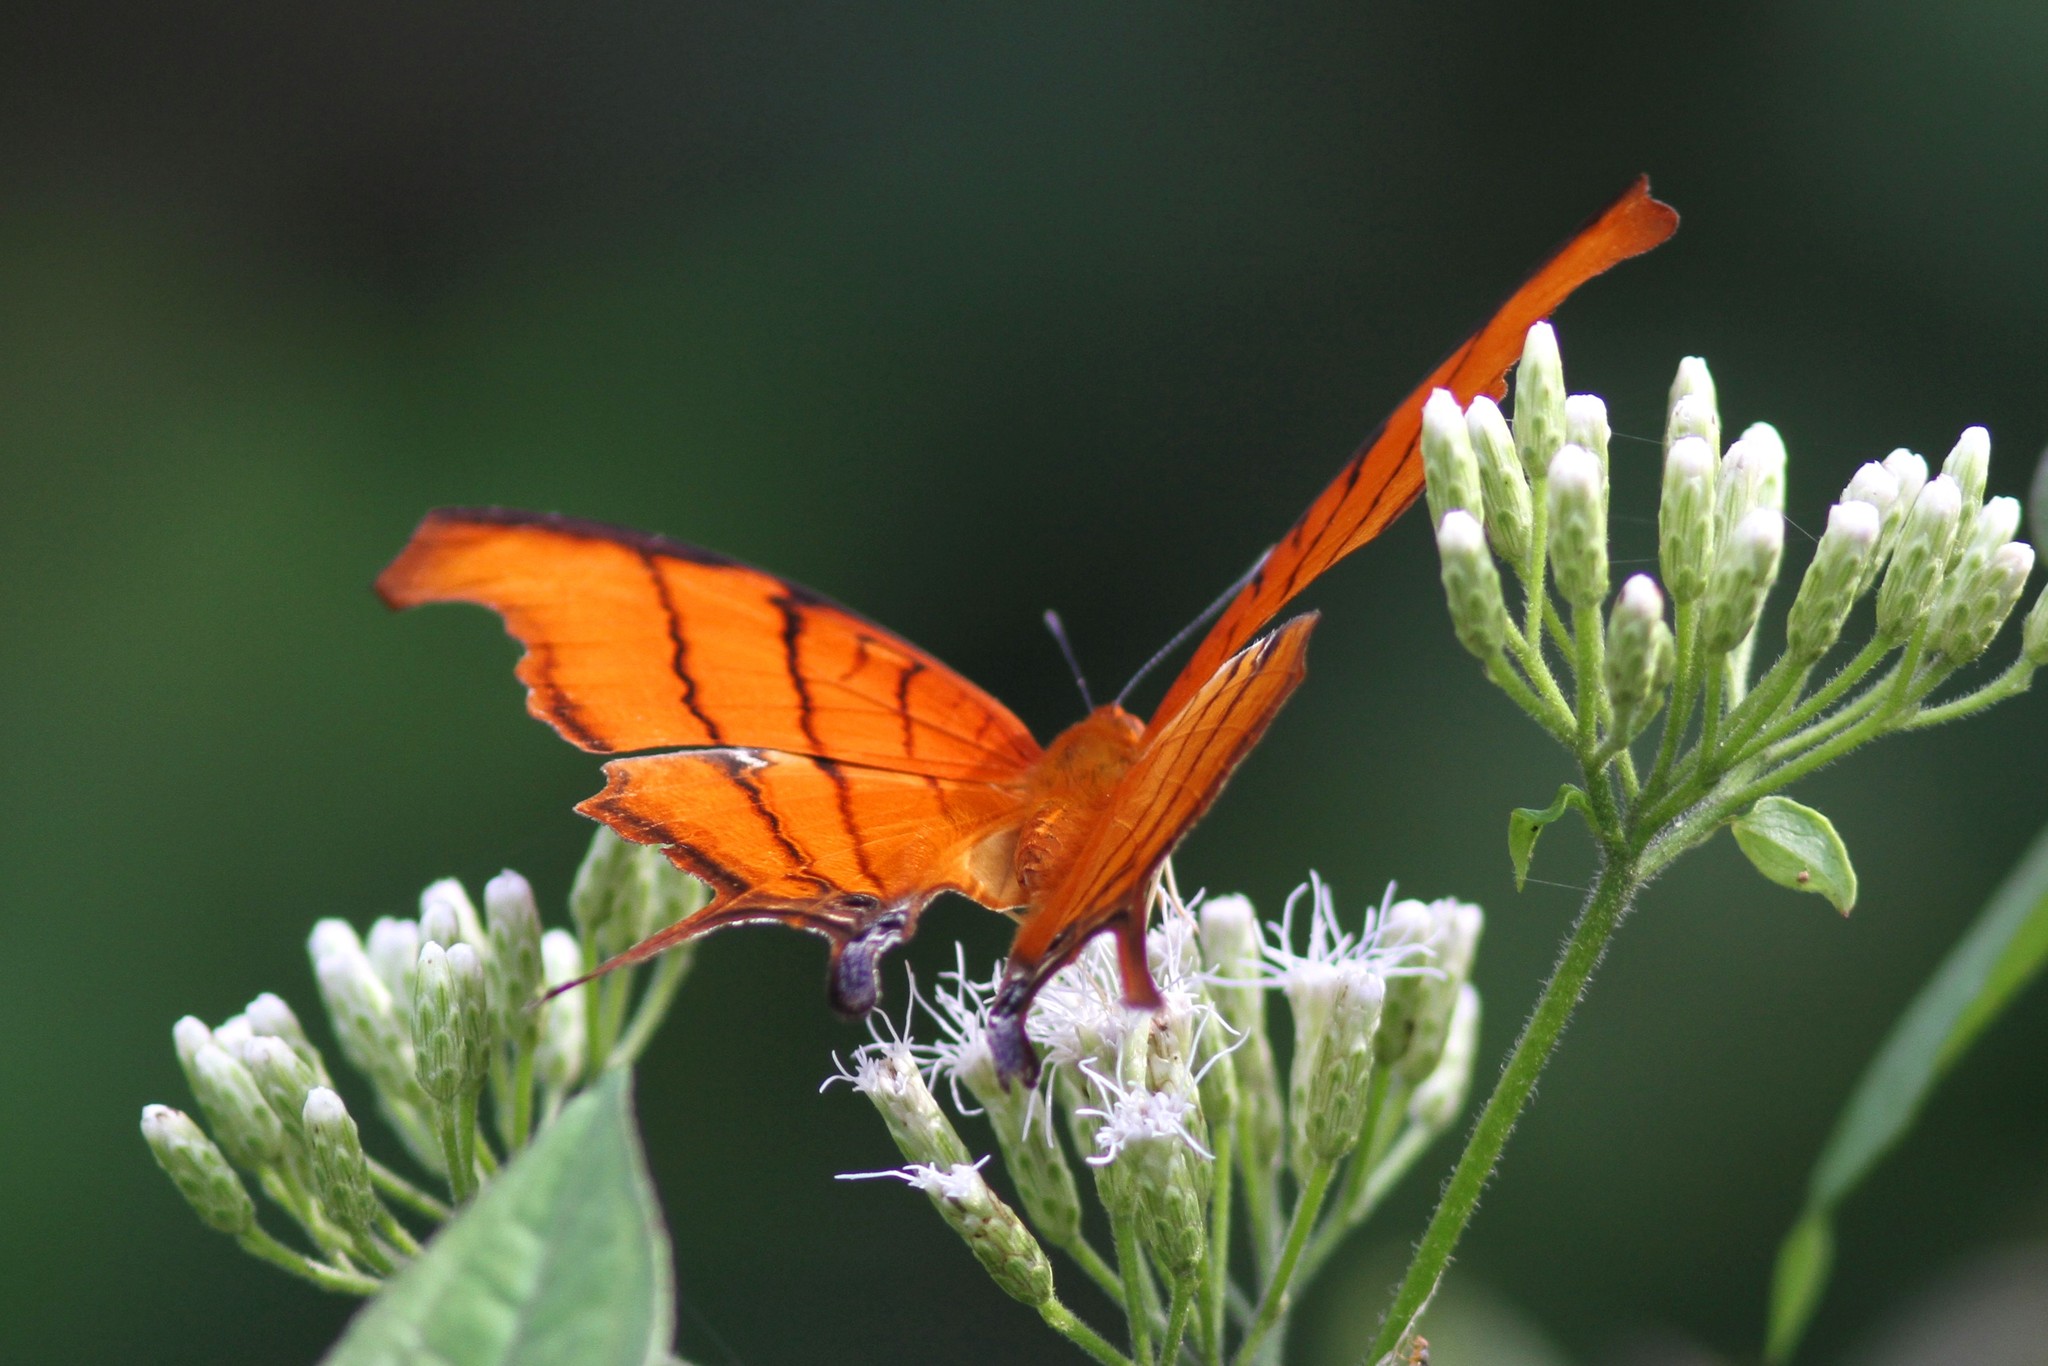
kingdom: Animalia
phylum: Arthropoda
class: Insecta
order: Lepidoptera
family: Nymphalidae
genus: Marpesia
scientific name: Marpesia petreus
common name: Red dagger wing
